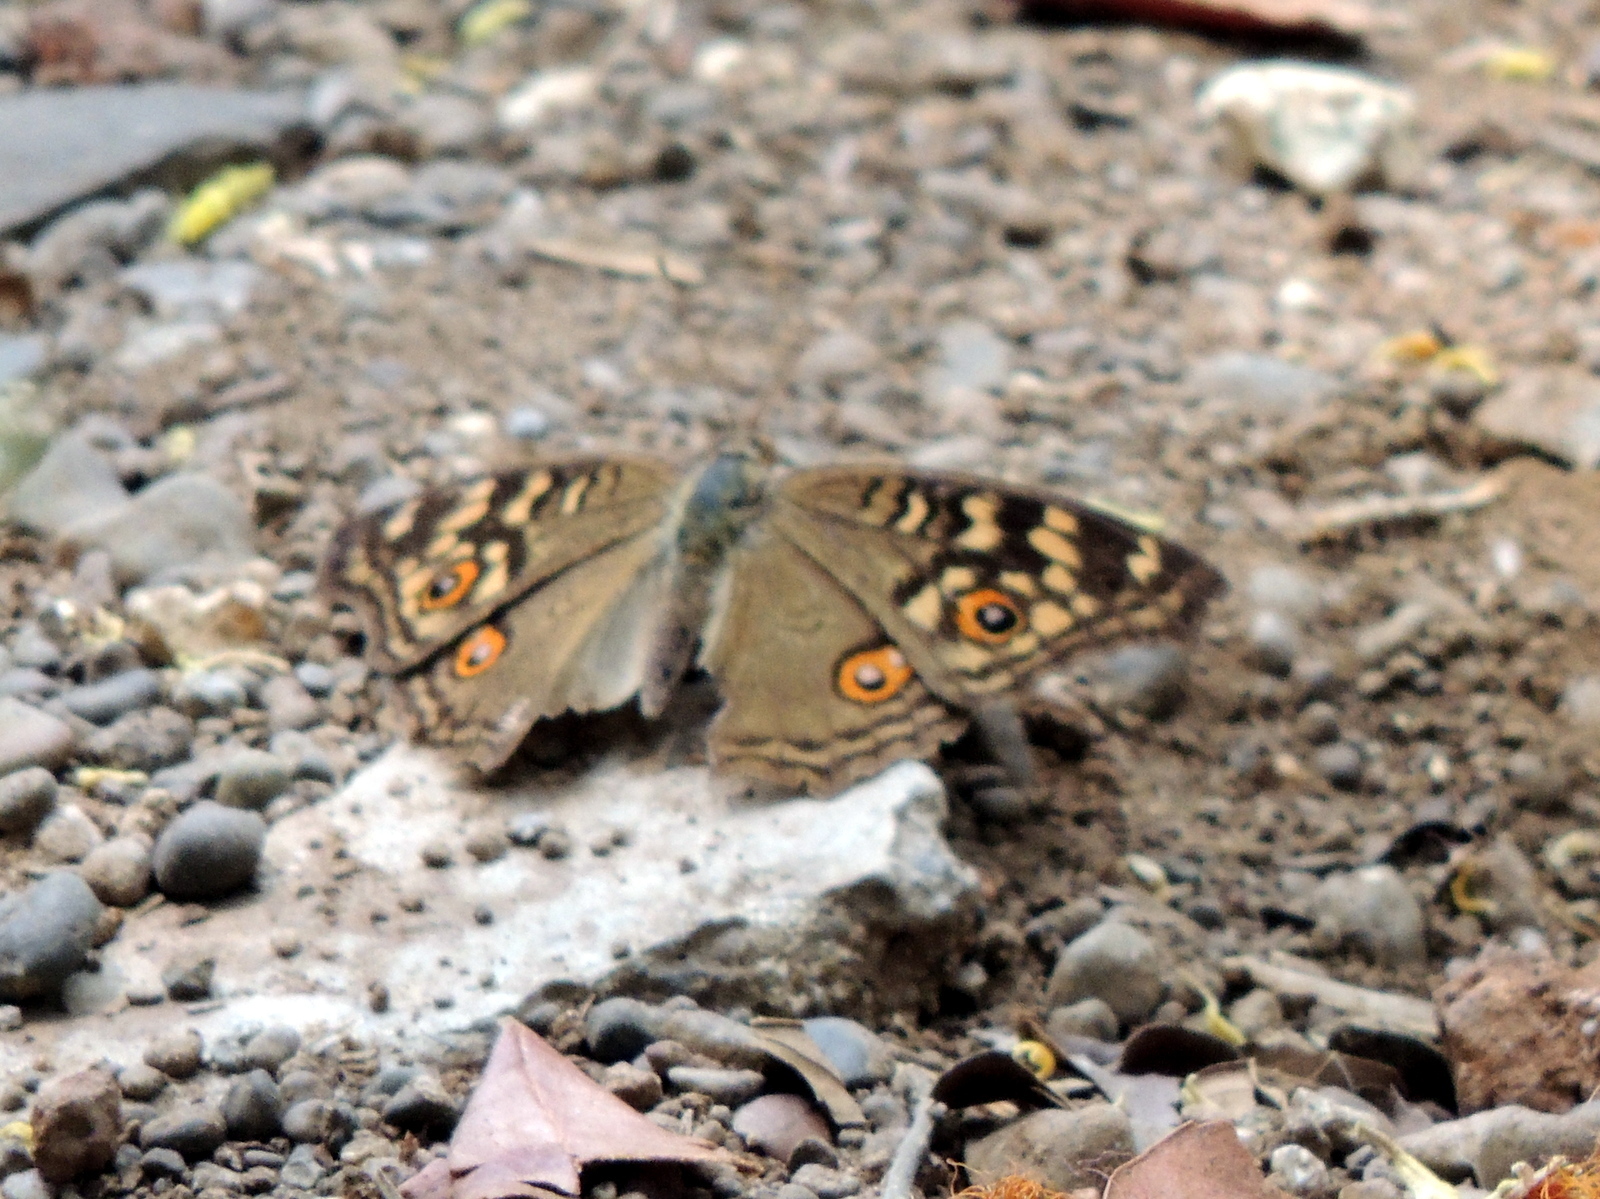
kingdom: Animalia
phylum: Arthropoda
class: Insecta
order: Lepidoptera
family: Nymphalidae
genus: Junonia
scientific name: Junonia lemonias
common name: Lemon pansy
